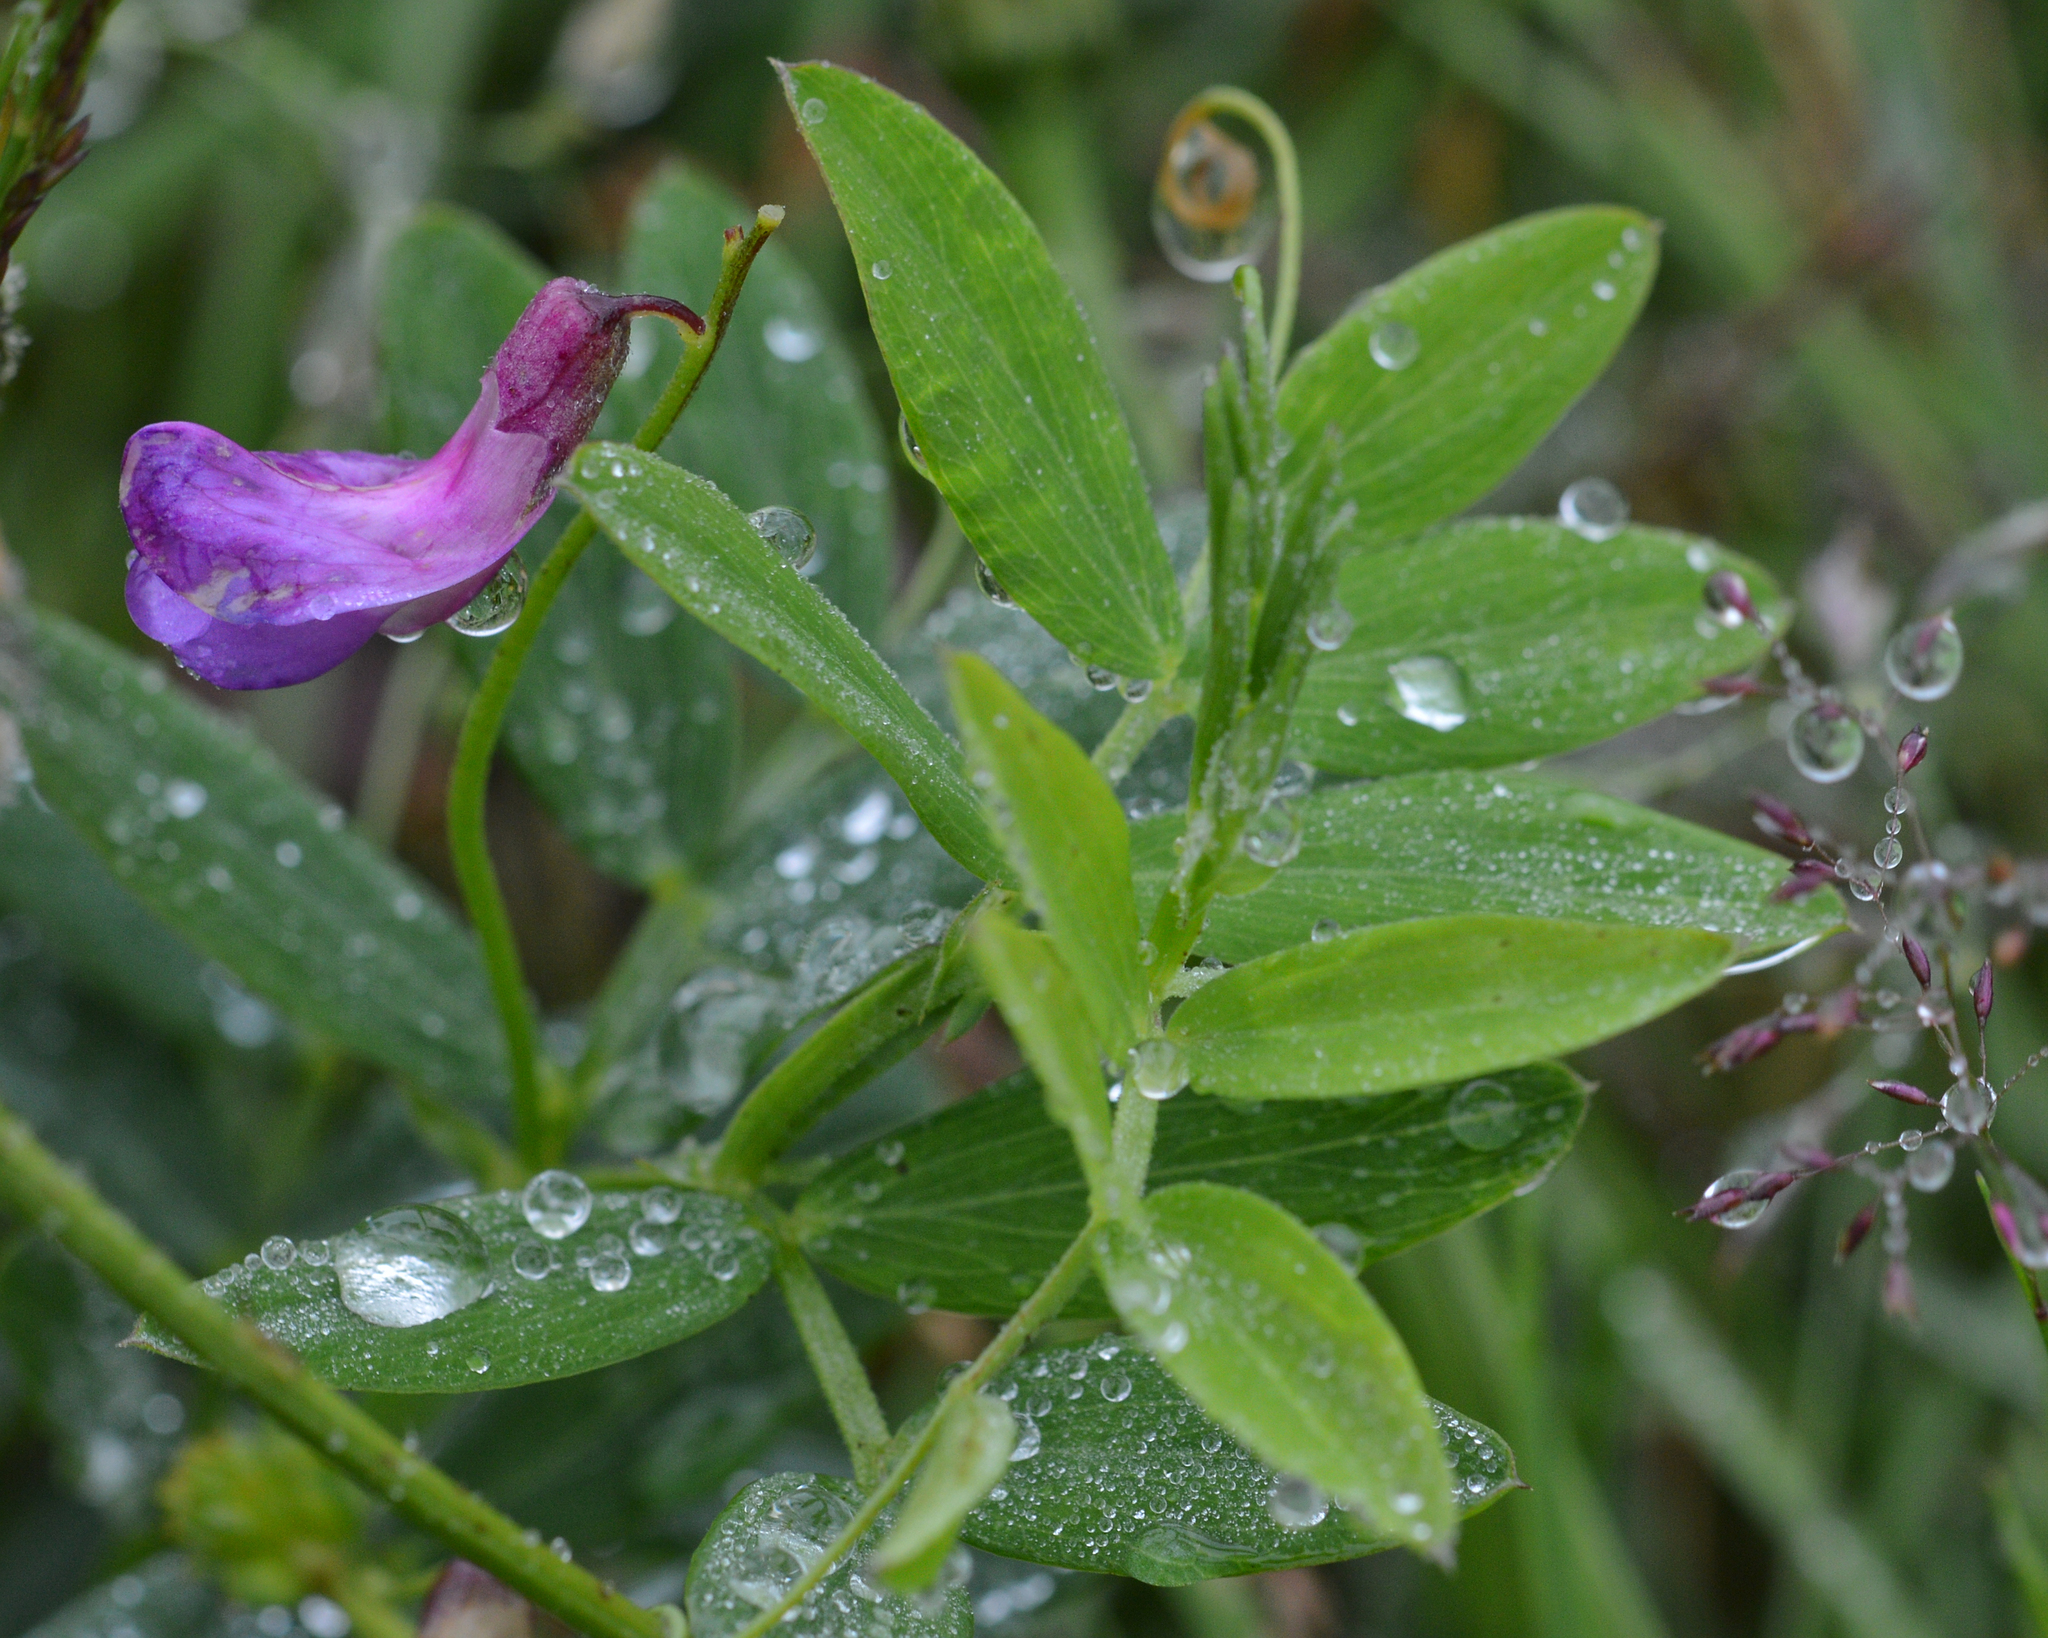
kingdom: Plantae
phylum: Tracheophyta
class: Magnoliopsida
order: Fabales
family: Fabaceae
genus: Lathyrus
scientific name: Lathyrus japonicus
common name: Sea pea
